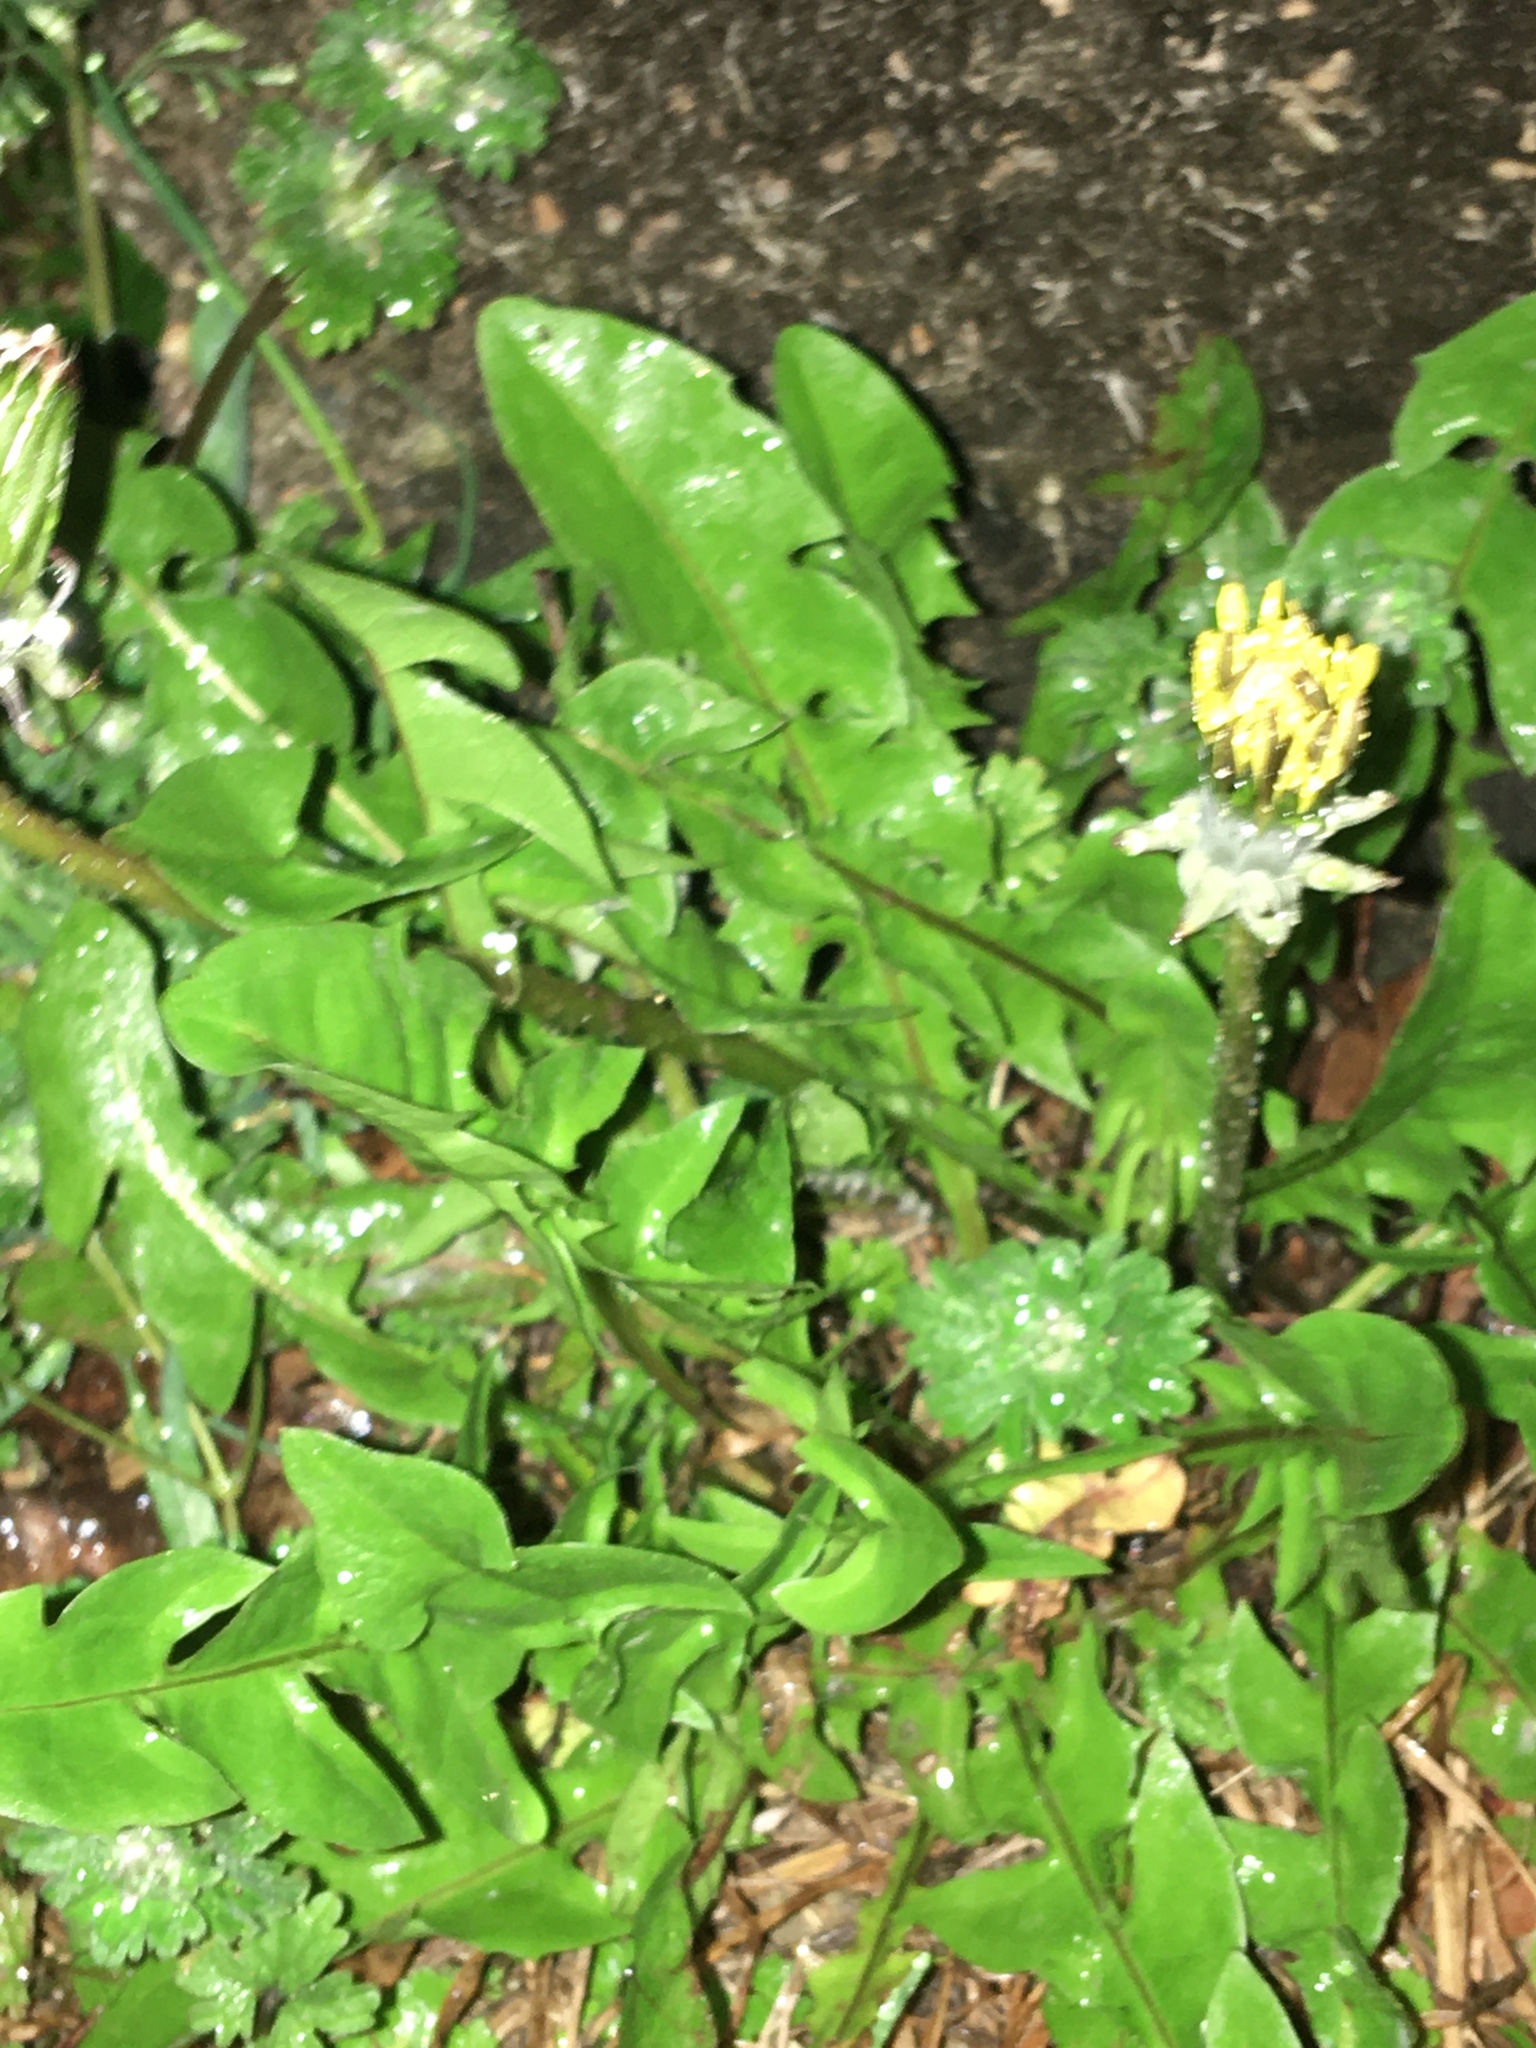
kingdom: Plantae
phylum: Tracheophyta
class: Magnoliopsida
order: Asterales
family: Asteraceae
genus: Taraxacum
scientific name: Taraxacum officinale
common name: Common dandelion
